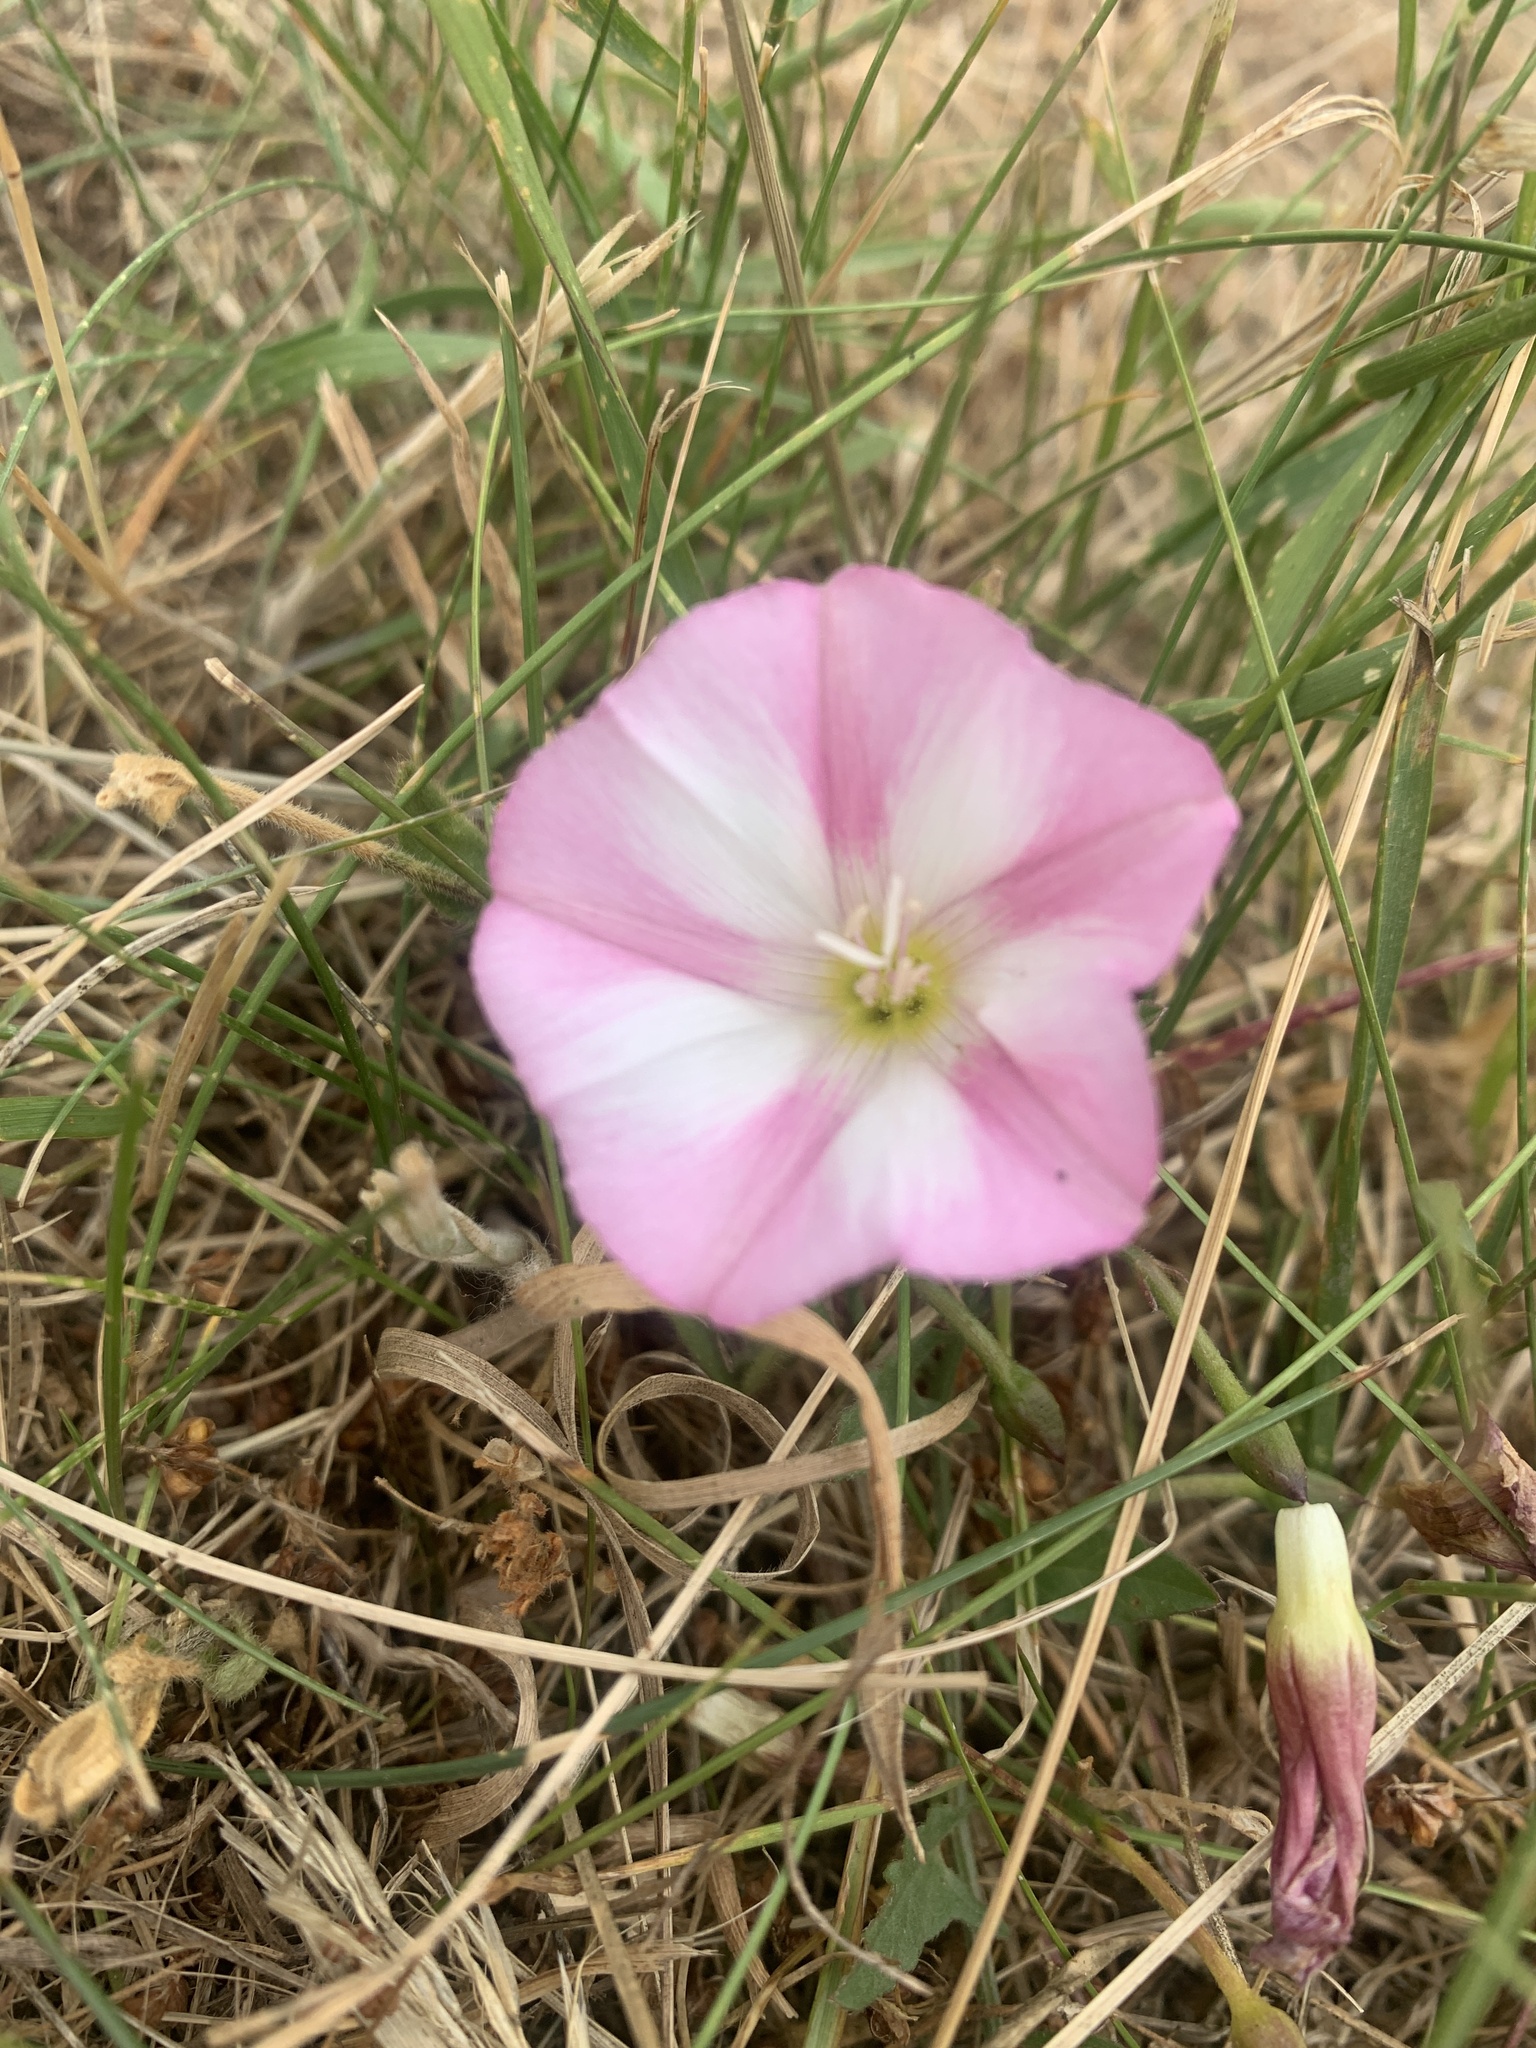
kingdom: Plantae
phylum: Tracheophyta
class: Magnoliopsida
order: Solanales
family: Convolvulaceae
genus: Convolvulus
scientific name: Convolvulus arvensis
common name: Field bindweed
